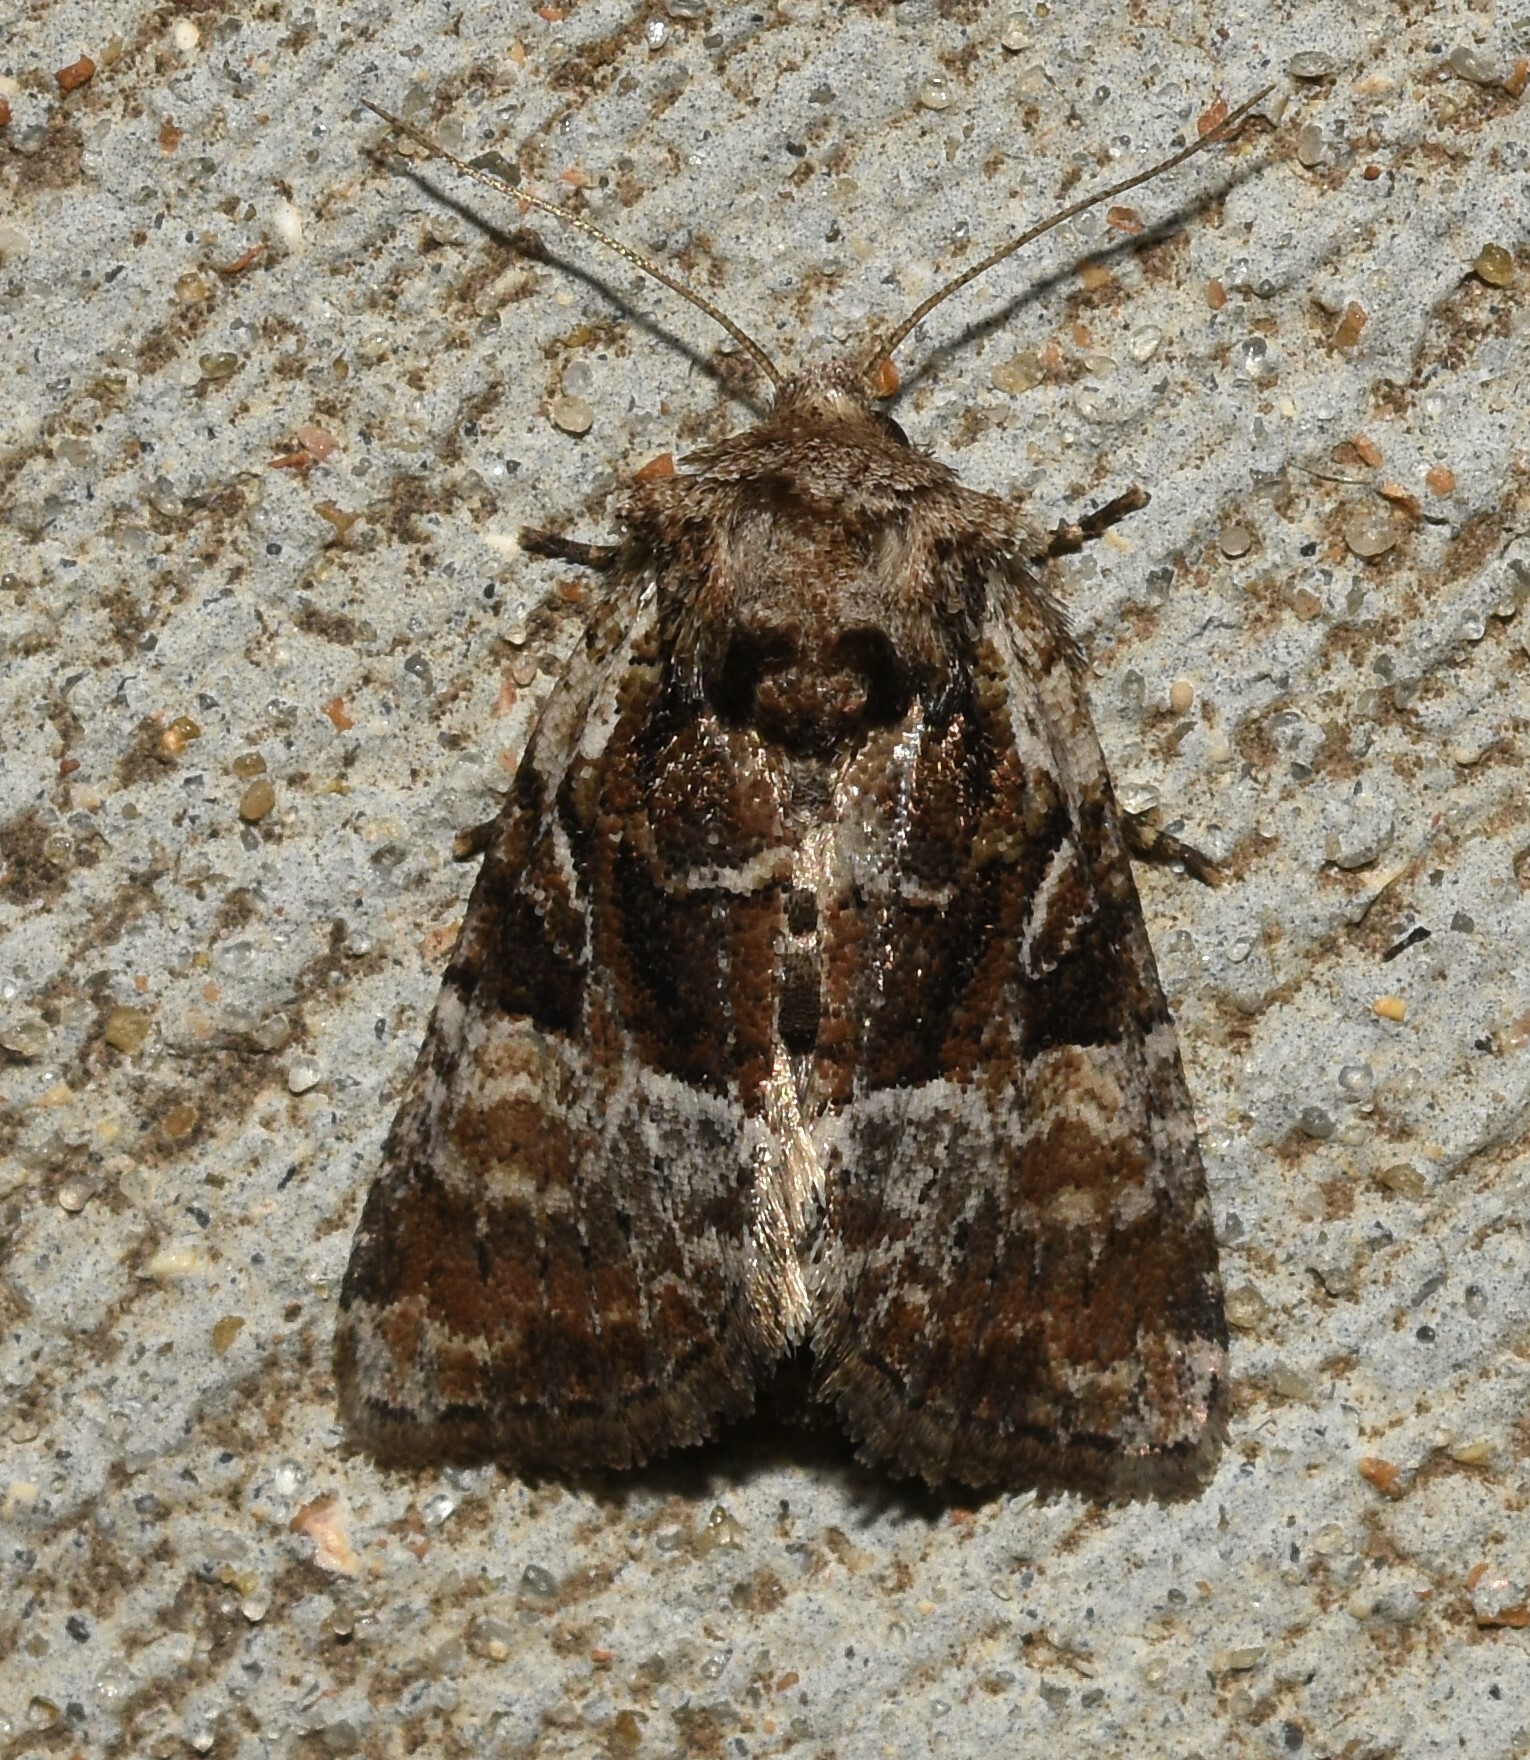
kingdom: Animalia
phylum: Arthropoda
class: Insecta
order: Lepidoptera
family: Noctuidae
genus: Meropleon
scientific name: Meropleon ambifusca
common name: Newman's brocade
